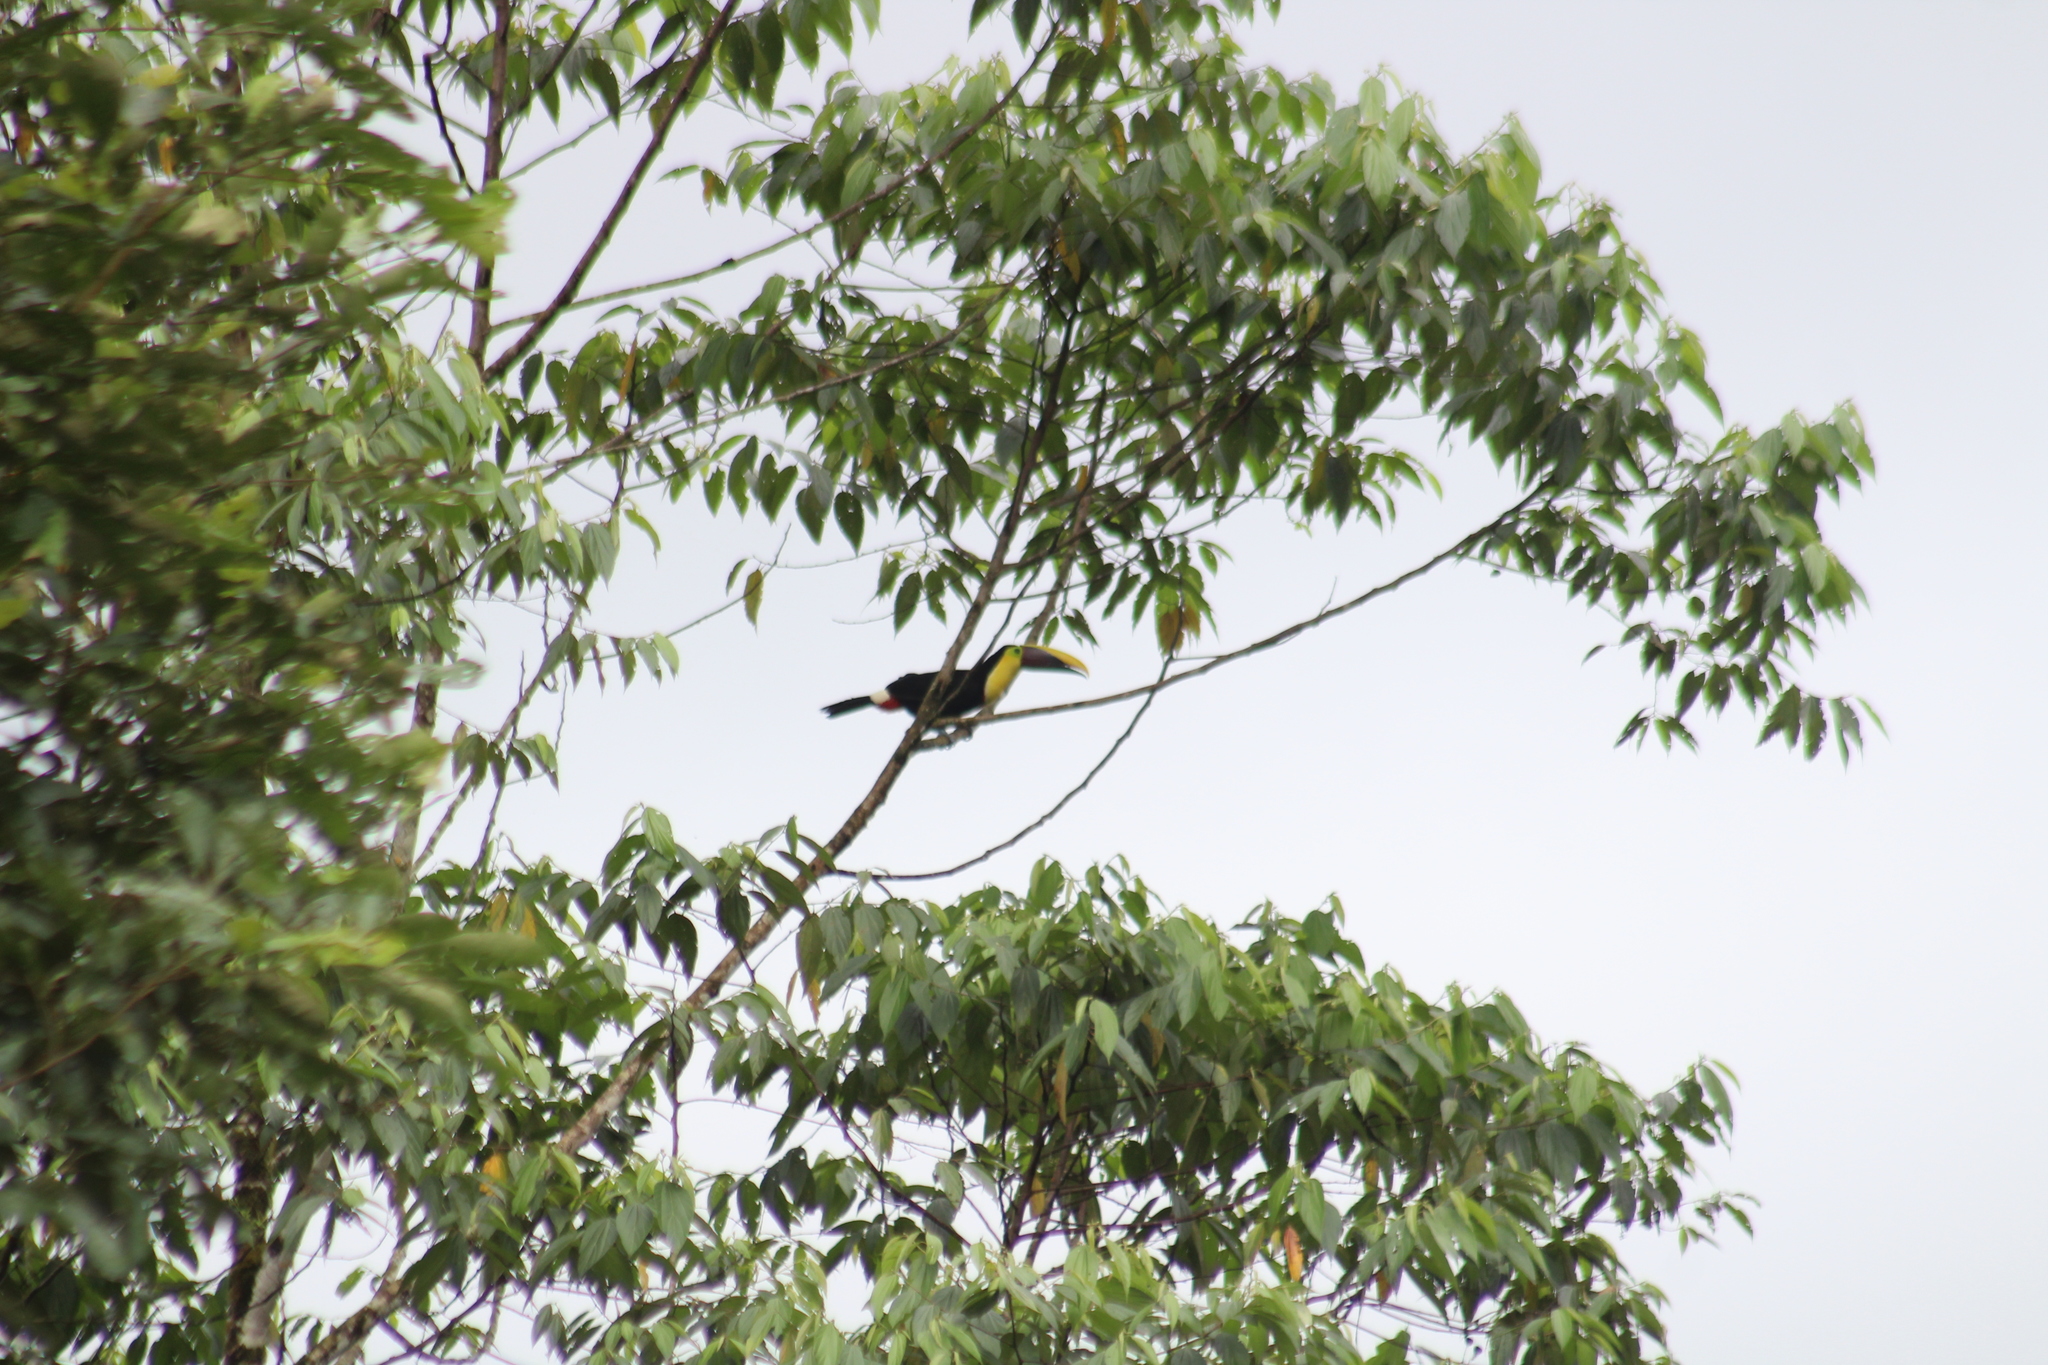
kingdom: Animalia
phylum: Chordata
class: Aves
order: Piciformes
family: Ramphastidae
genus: Ramphastos
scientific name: Ramphastos ambiguus
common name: Yellow-throated toucan
